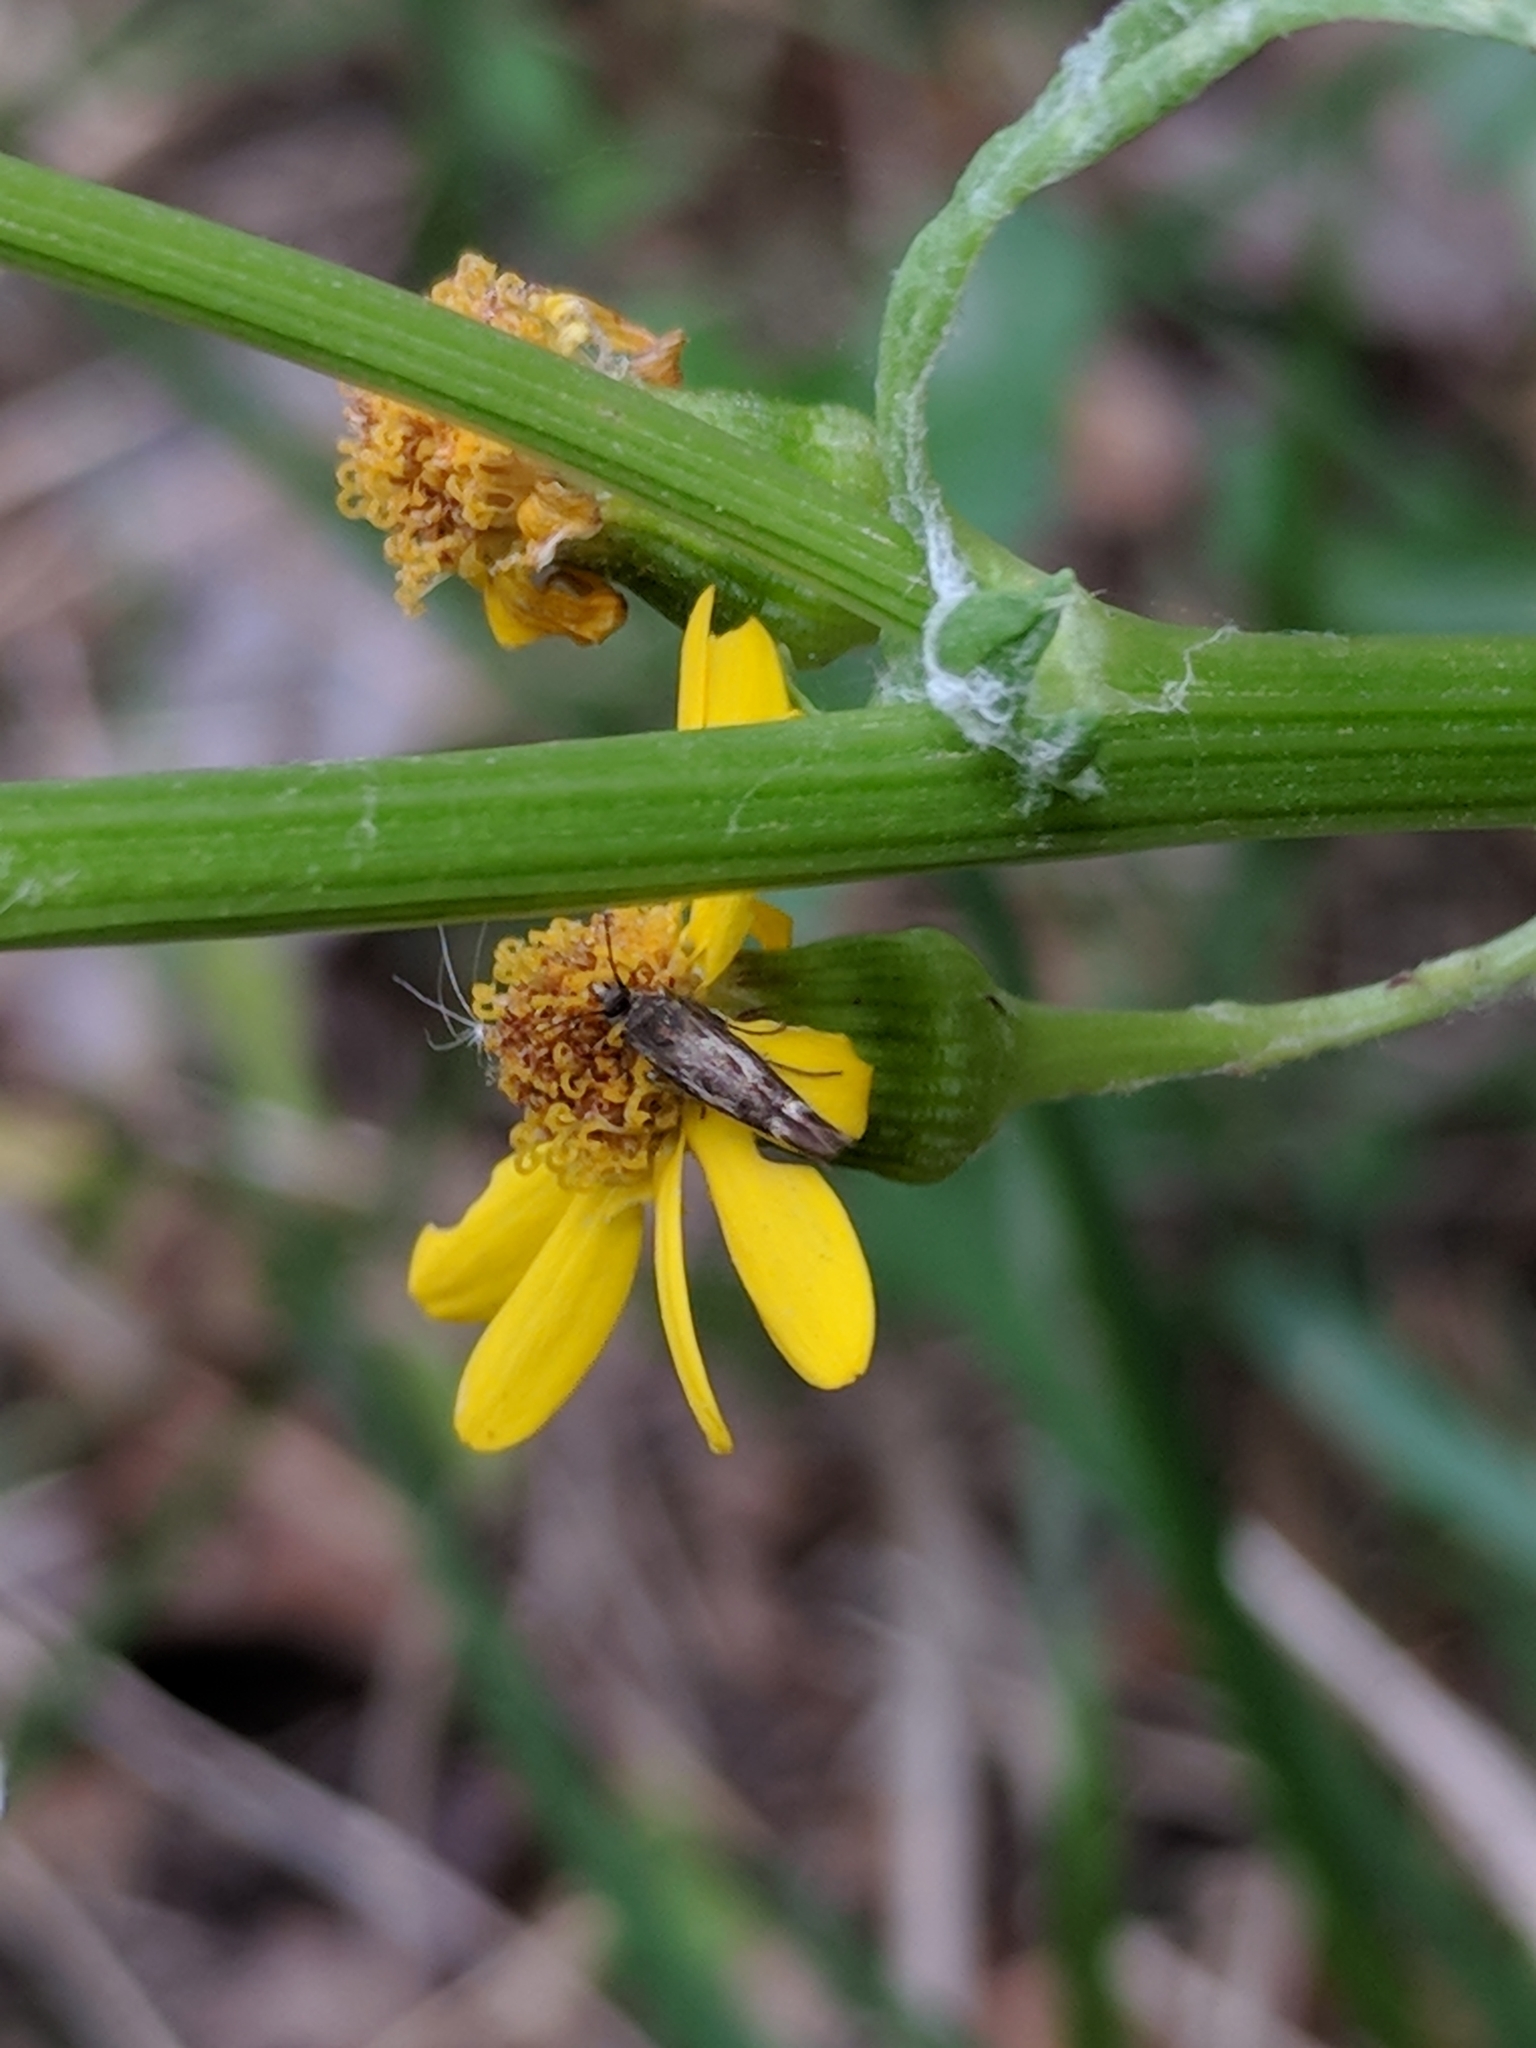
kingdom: Animalia
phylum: Arthropoda
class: Insecta
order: Lepidoptera
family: Scythrididae
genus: Scythris
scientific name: Scythris trivinctella
